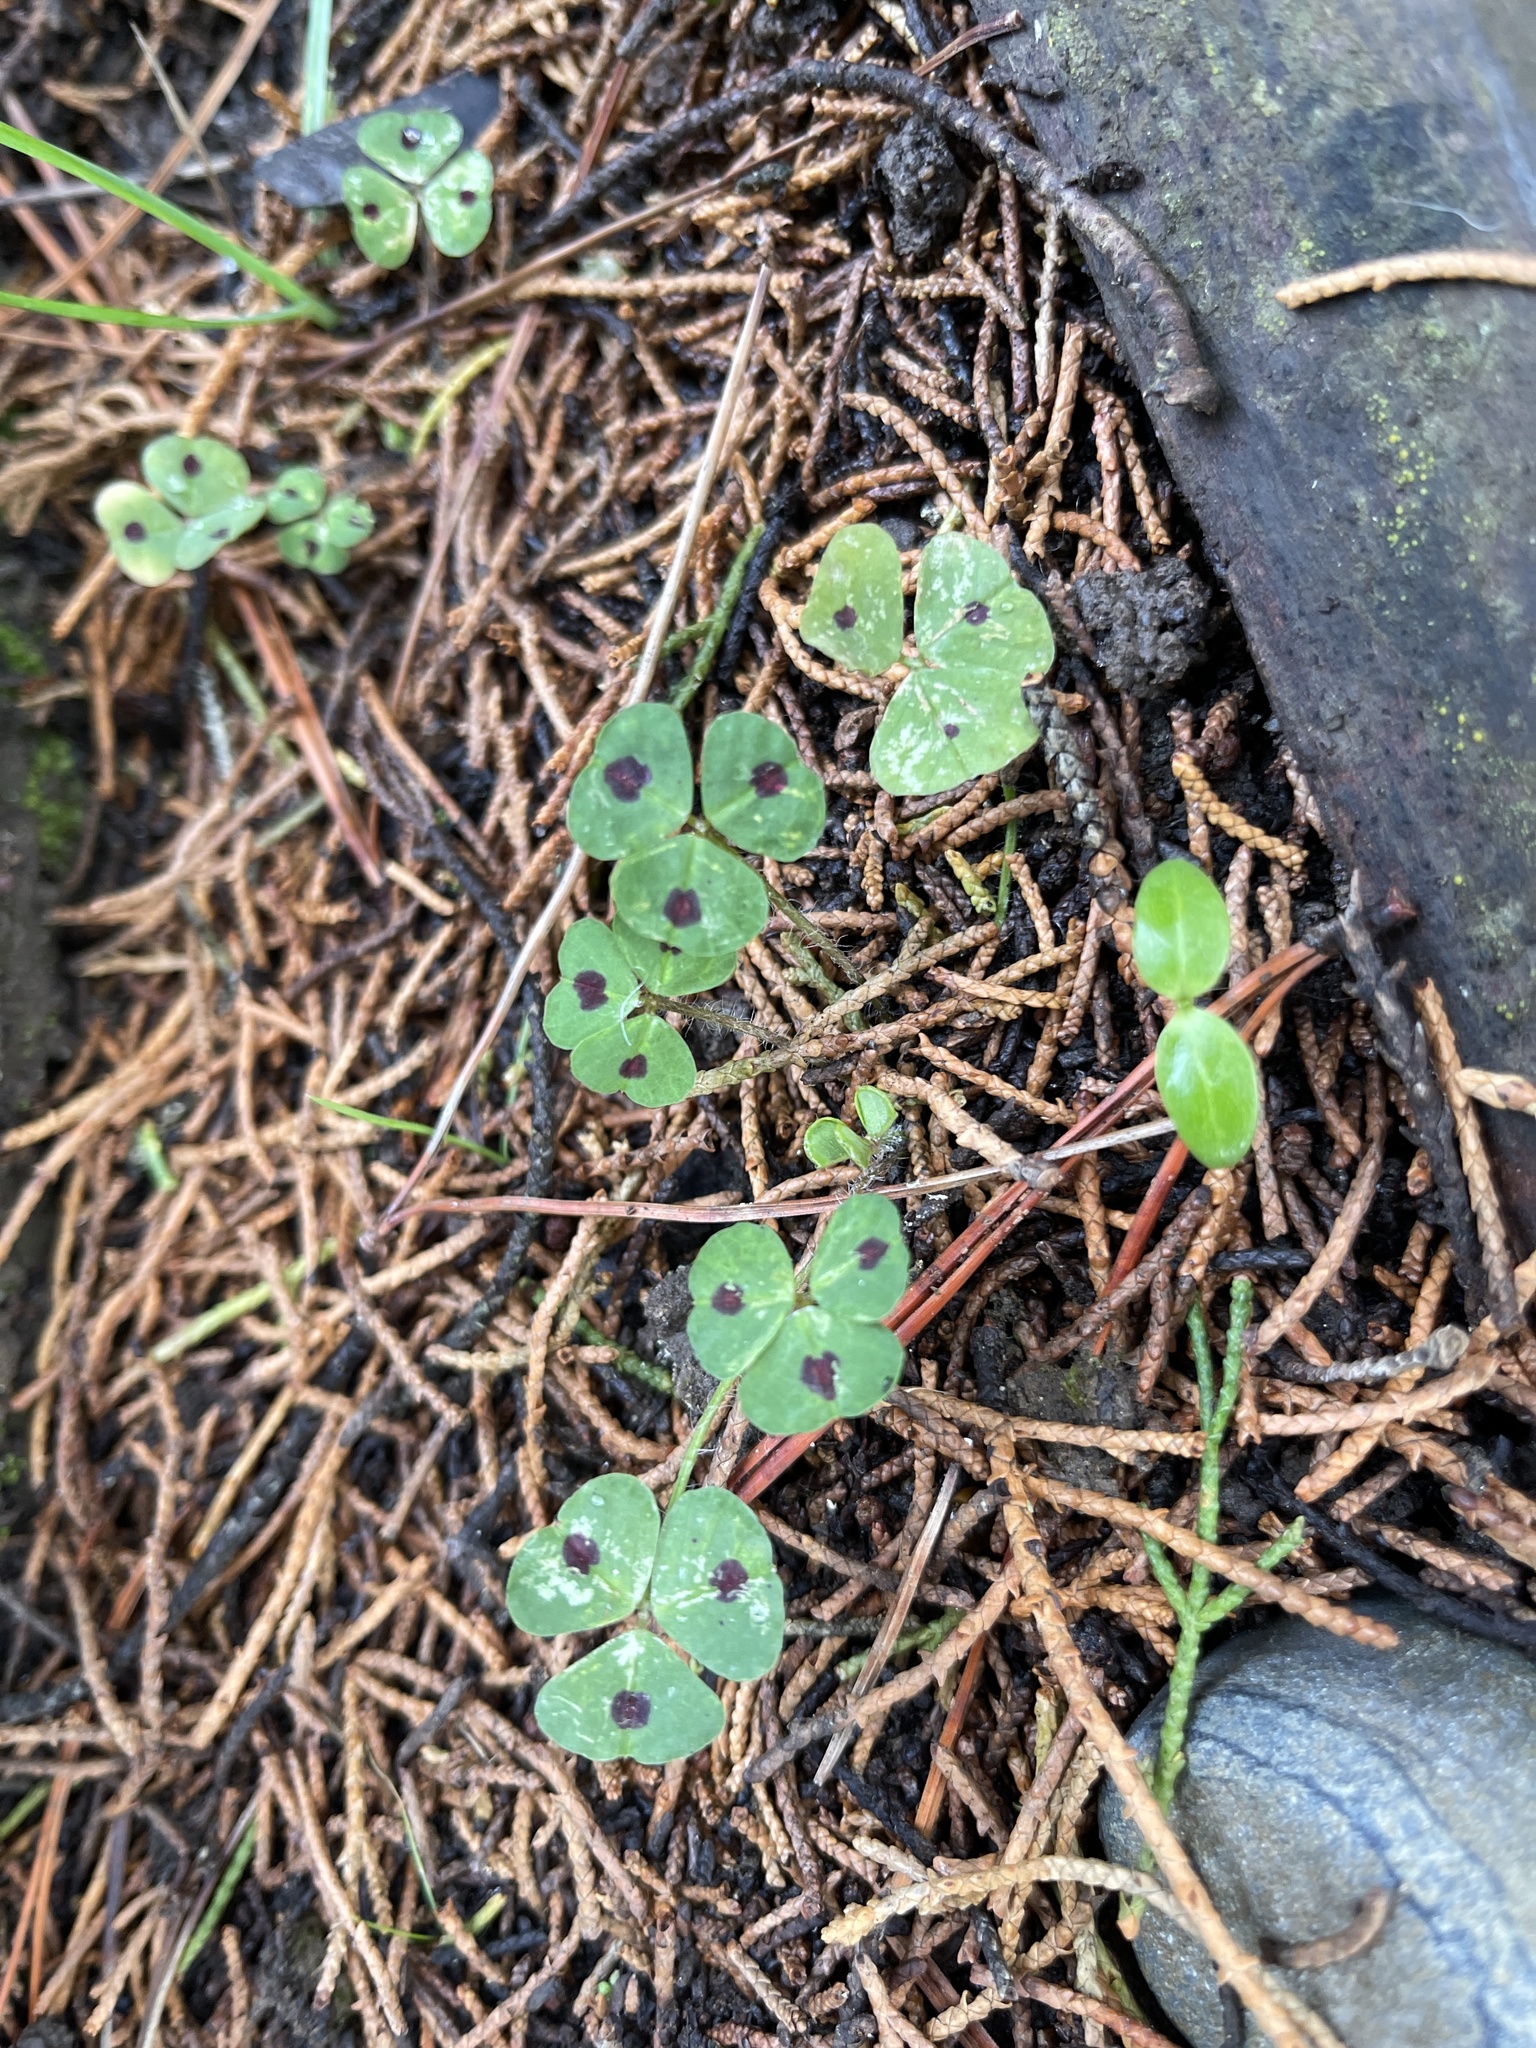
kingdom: Plantae
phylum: Tracheophyta
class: Magnoliopsida
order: Fabales
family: Fabaceae
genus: Medicago
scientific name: Medicago arabica
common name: Spotted medick
